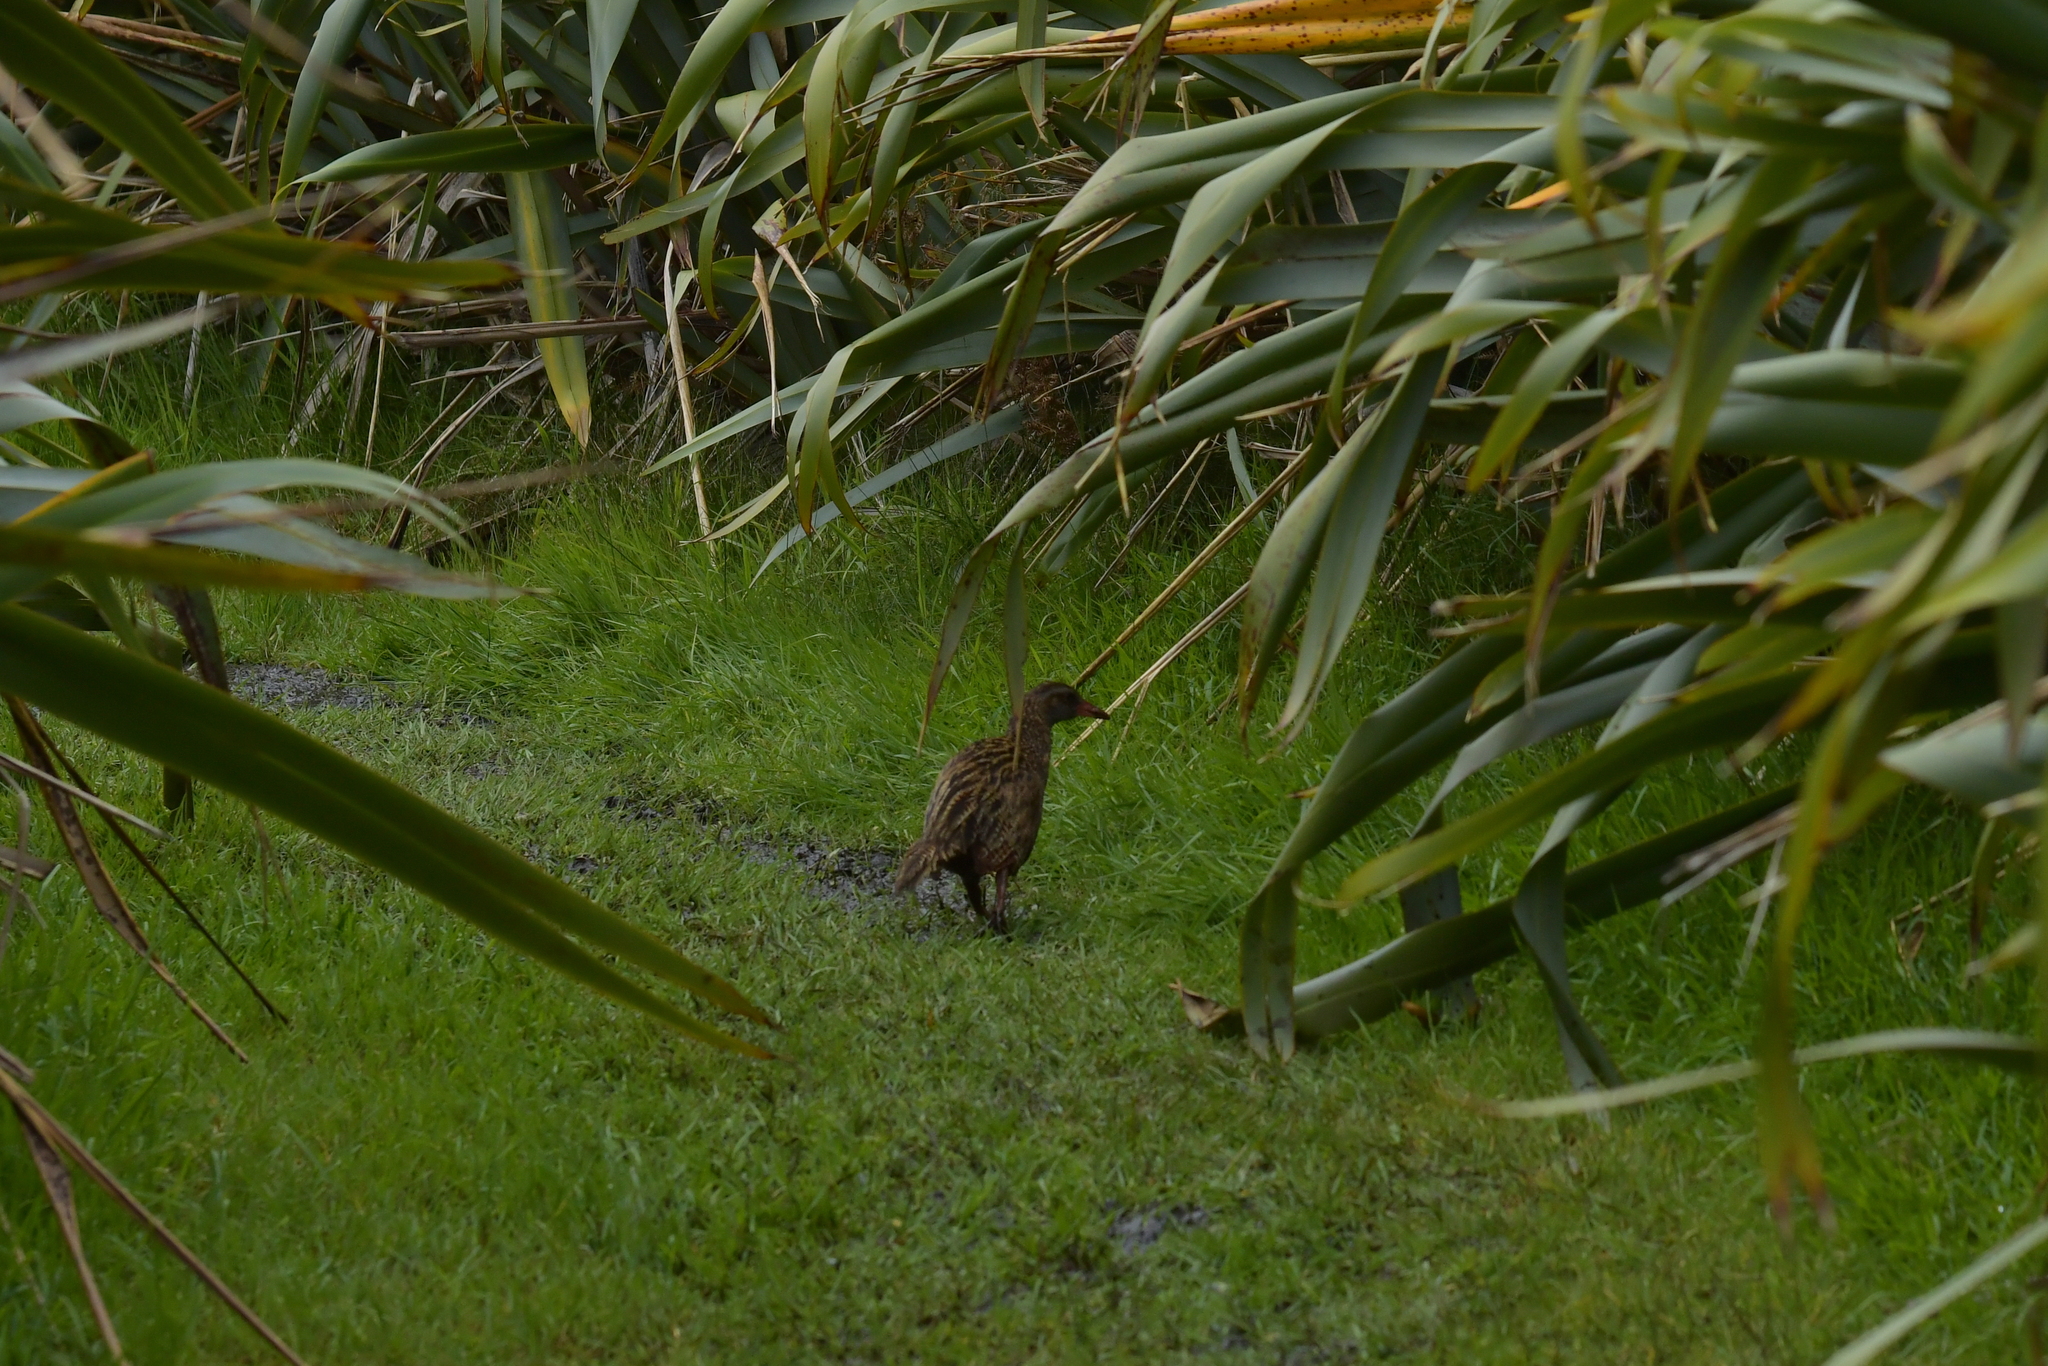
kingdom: Animalia
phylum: Chordata
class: Aves
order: Gruiformes
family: Rallidae
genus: Gallirallus
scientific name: Gallirallus australis
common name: Weka
